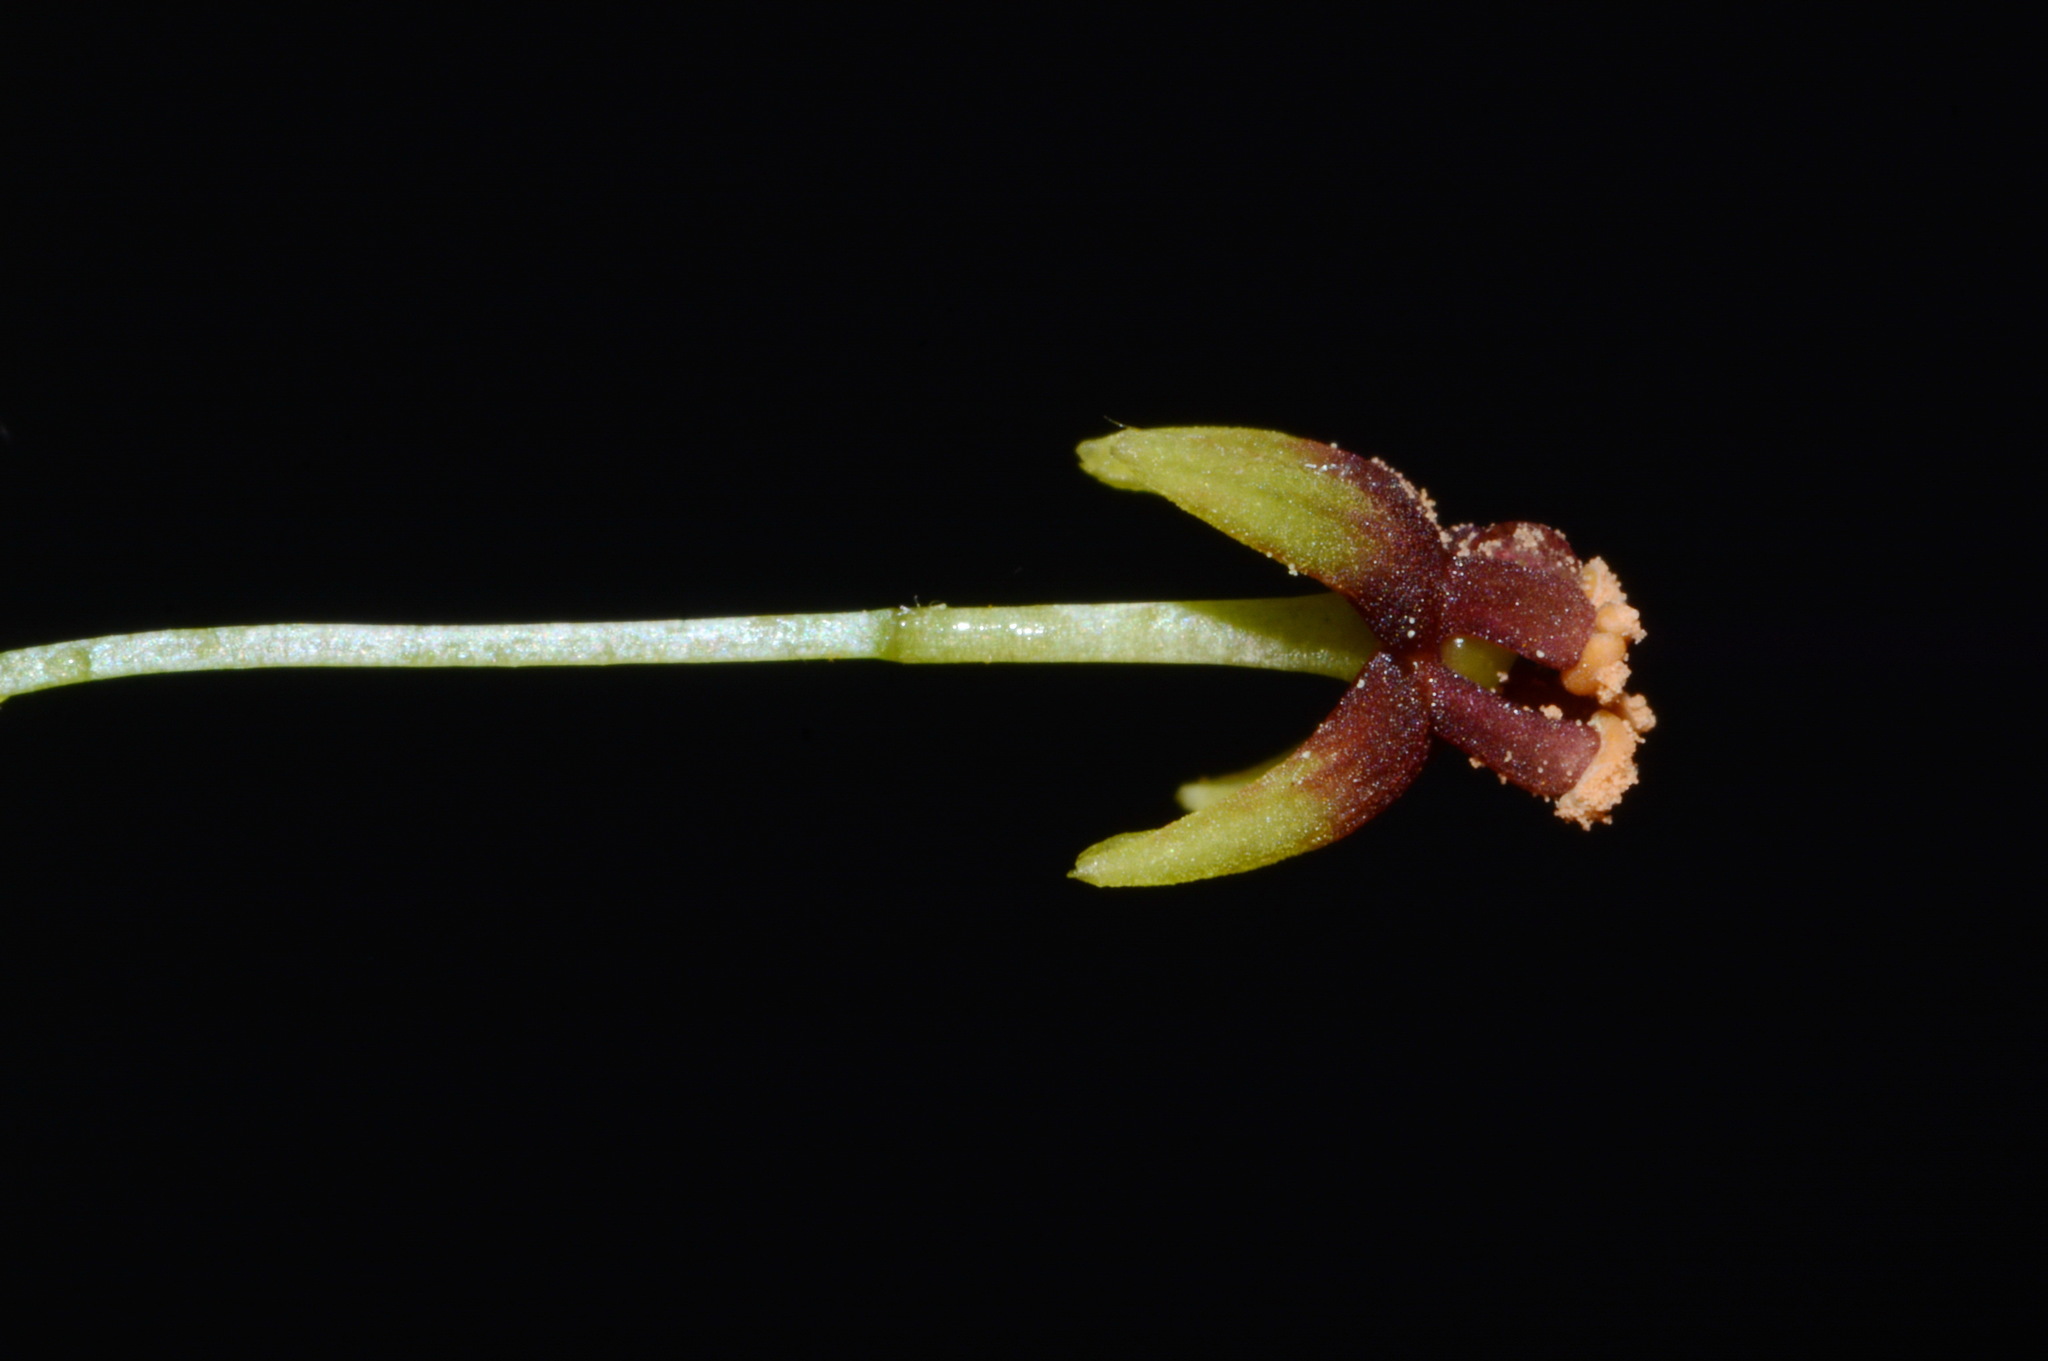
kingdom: Plantae
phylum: Tracheophyta
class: Liliopsida
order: Pandanales
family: Stemonaceae
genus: Croomia
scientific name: Croomia pauciflora
